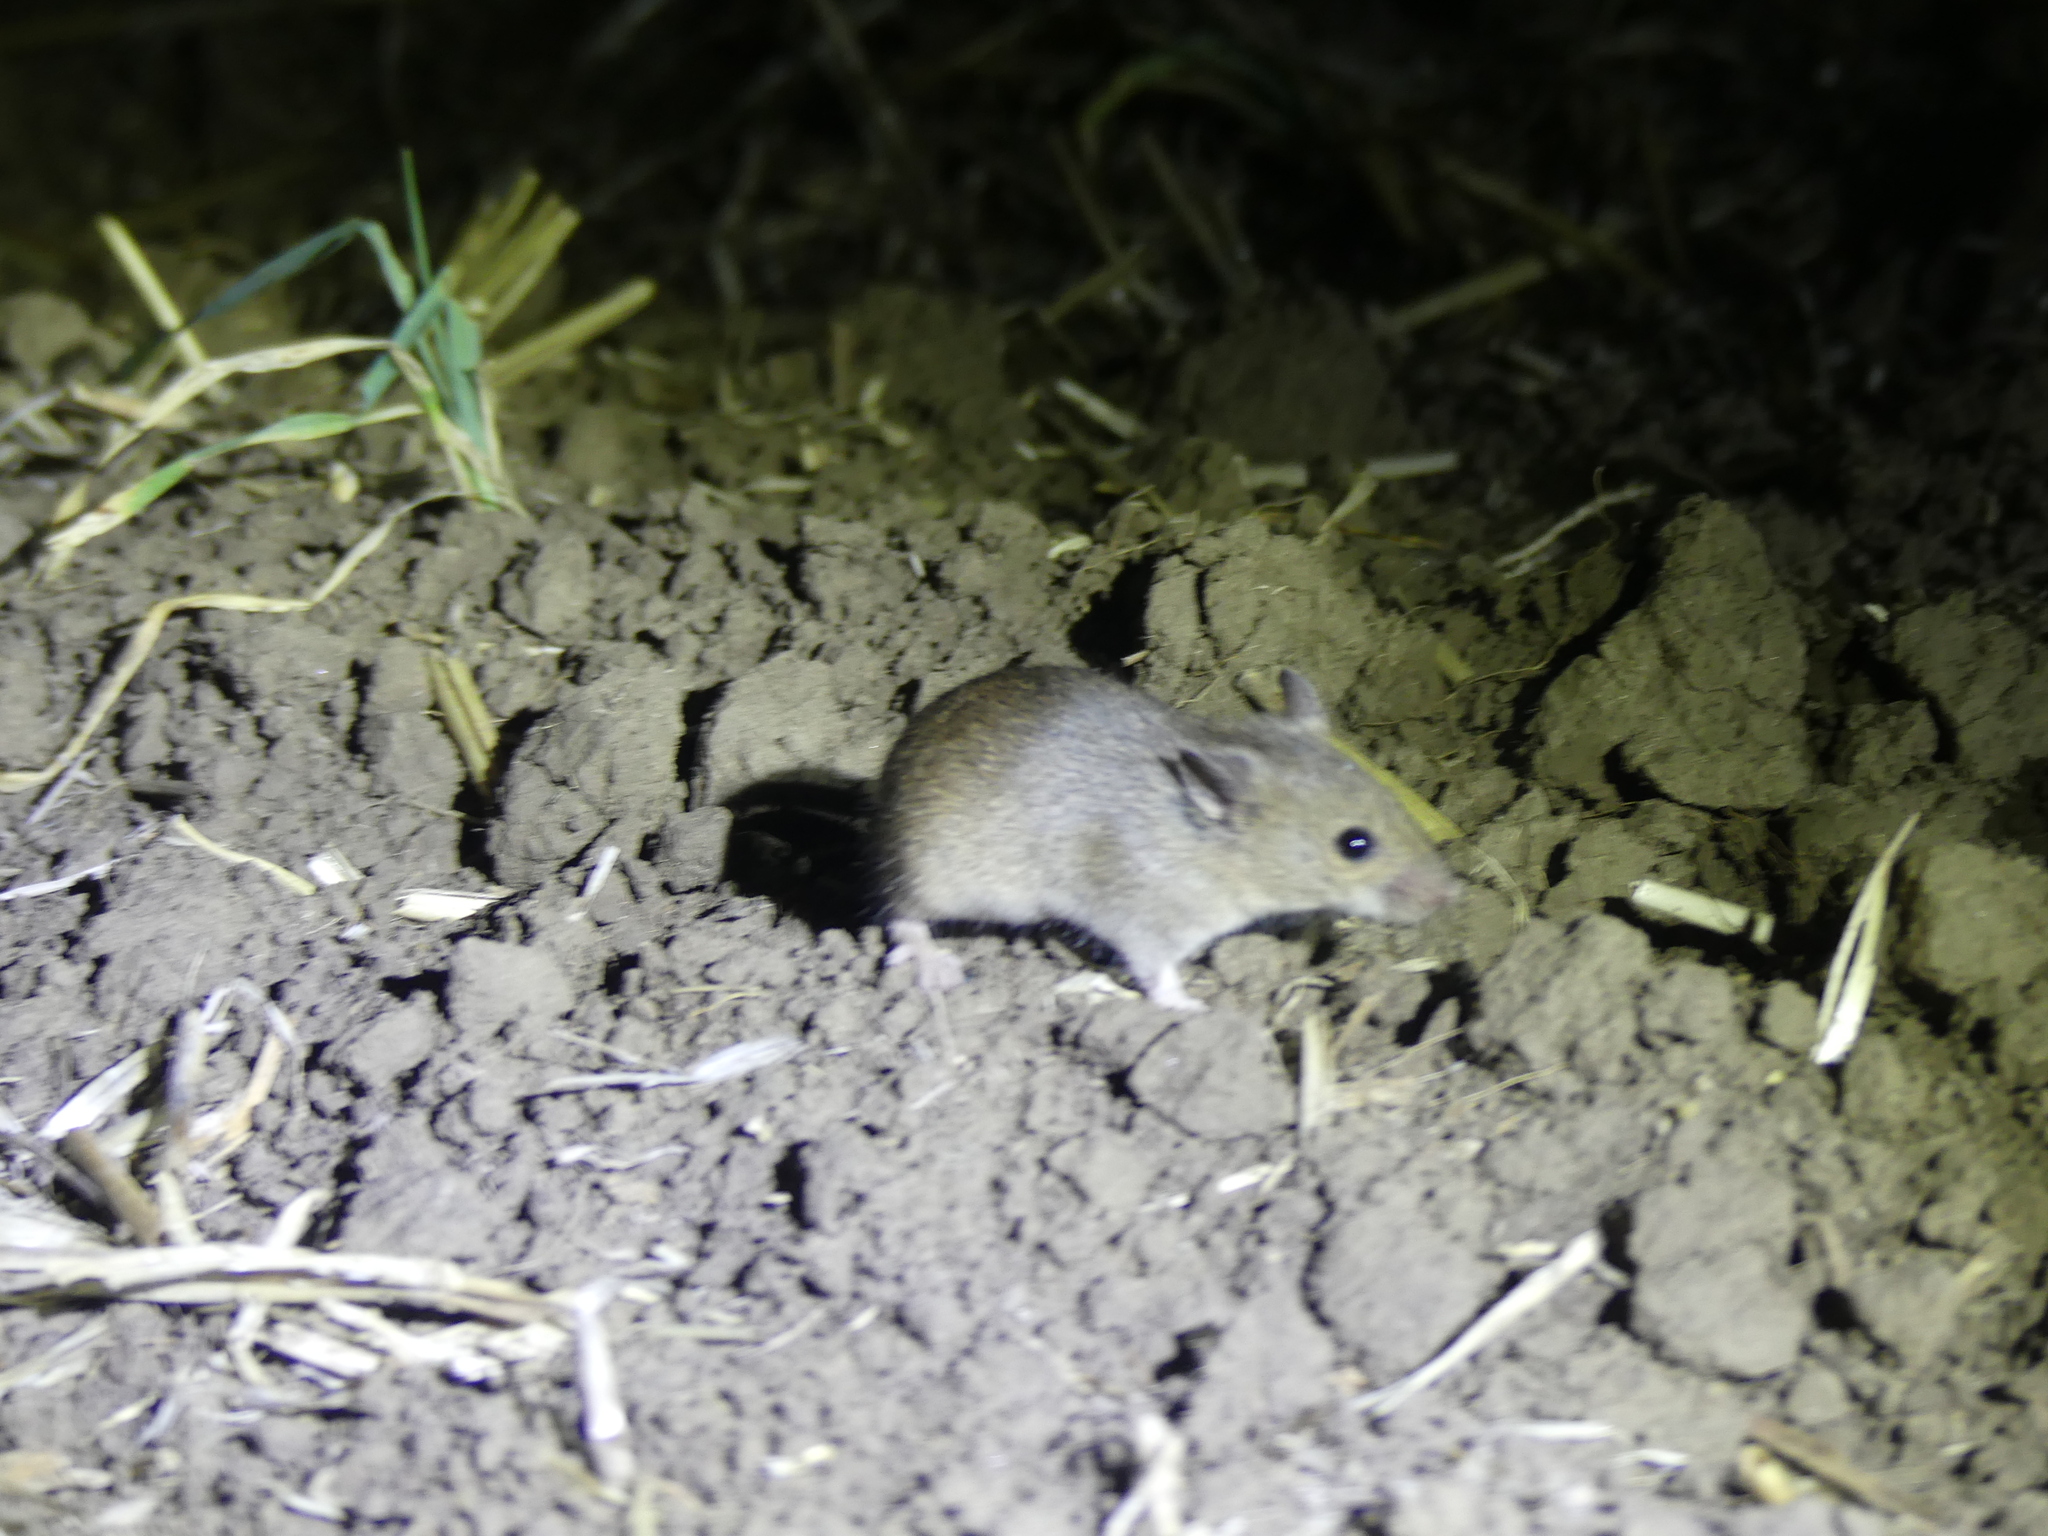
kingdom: Animalia
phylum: Chordata
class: Mammalia
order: Rodentia
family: Muridae
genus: Mus
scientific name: Mus spicilegus
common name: Mound-building mouse
